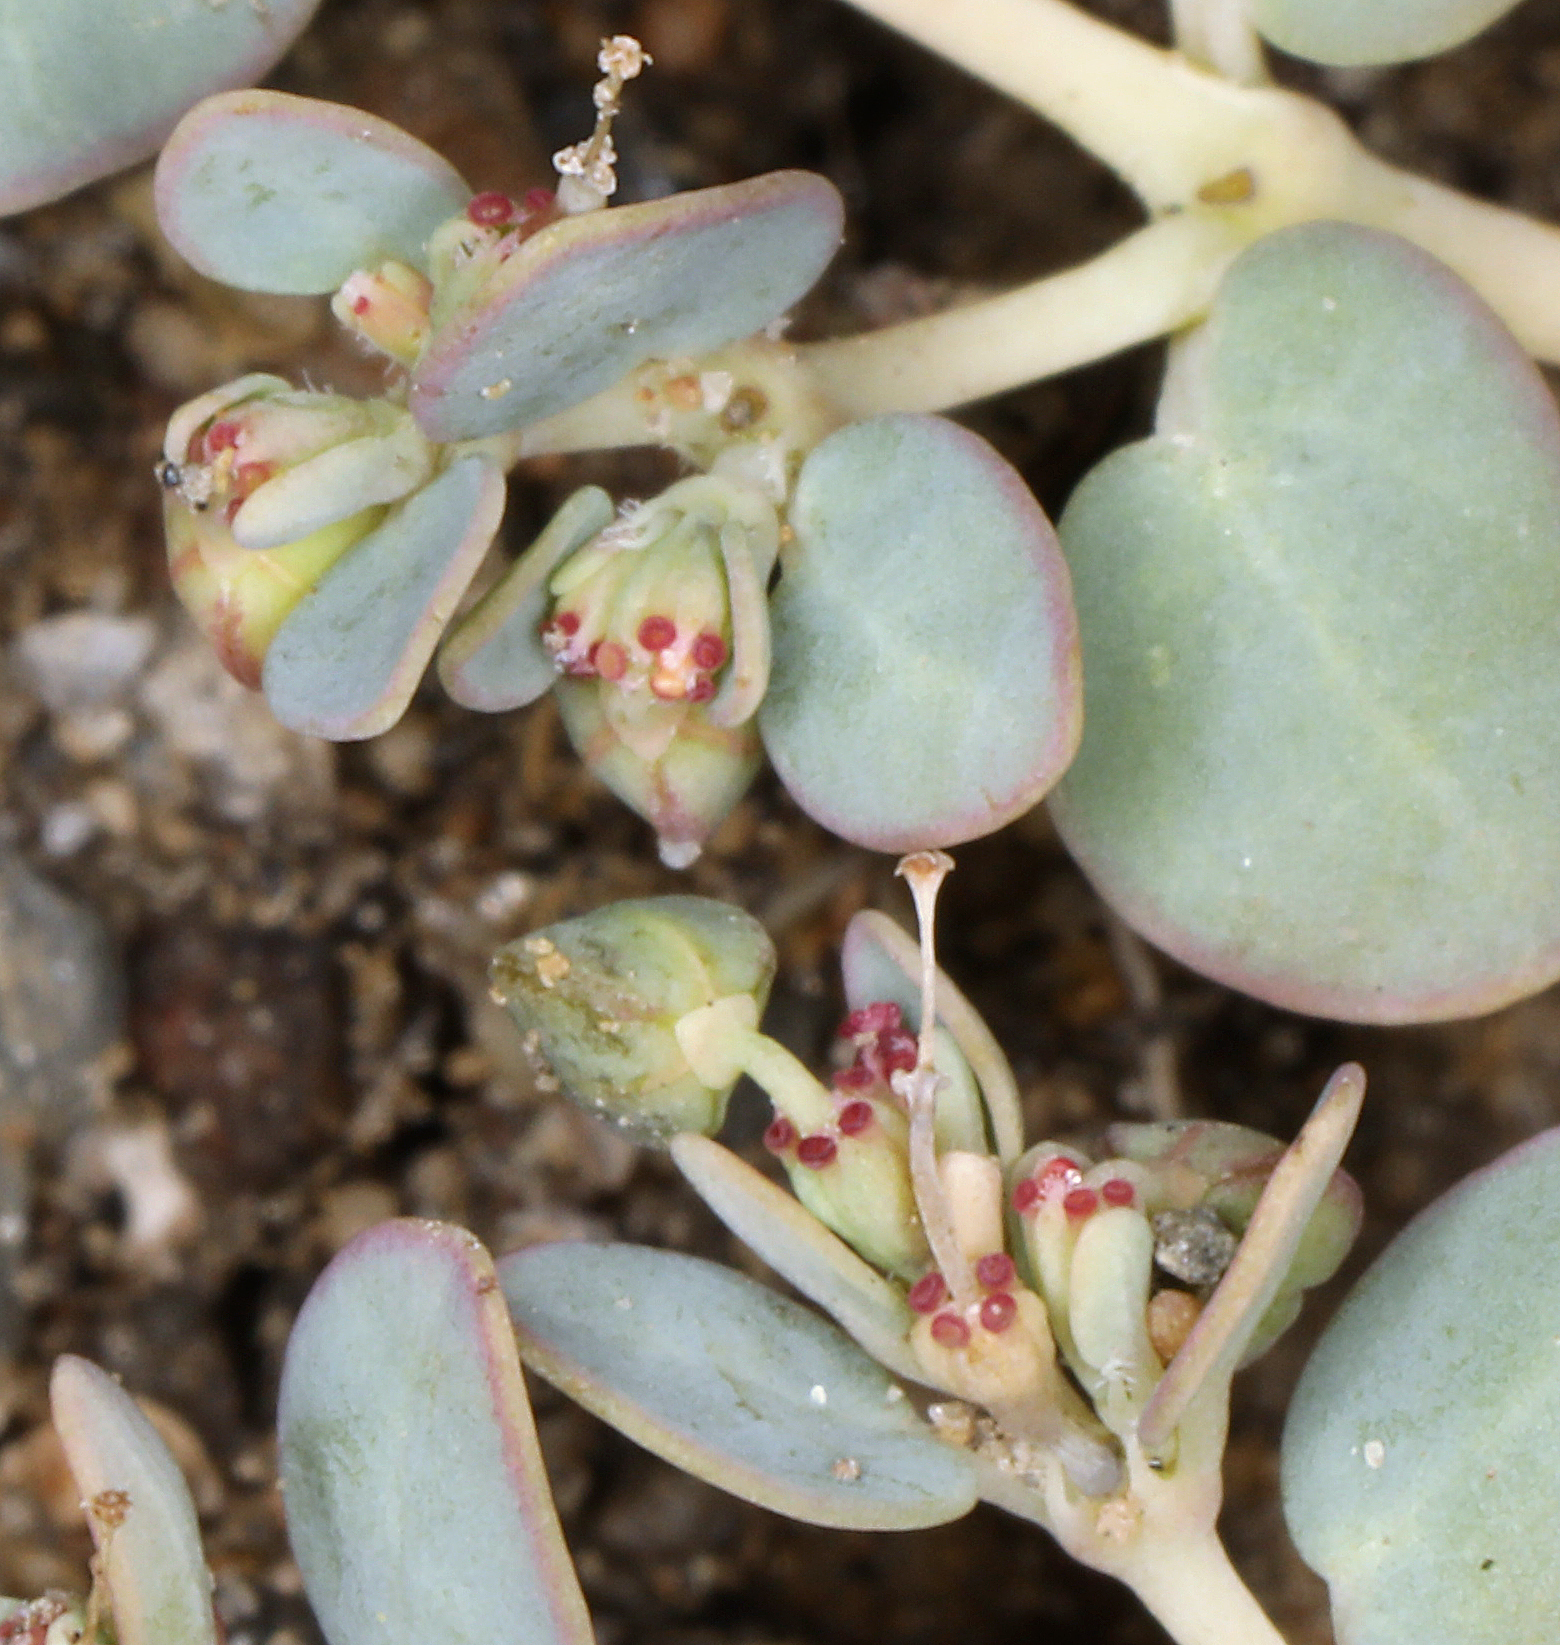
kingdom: Plantae
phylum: Tracheophyta
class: Magnoliopsida
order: Malpighiales
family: Euphorbiaceae
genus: Euphorbia
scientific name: Euphorbia micromera
